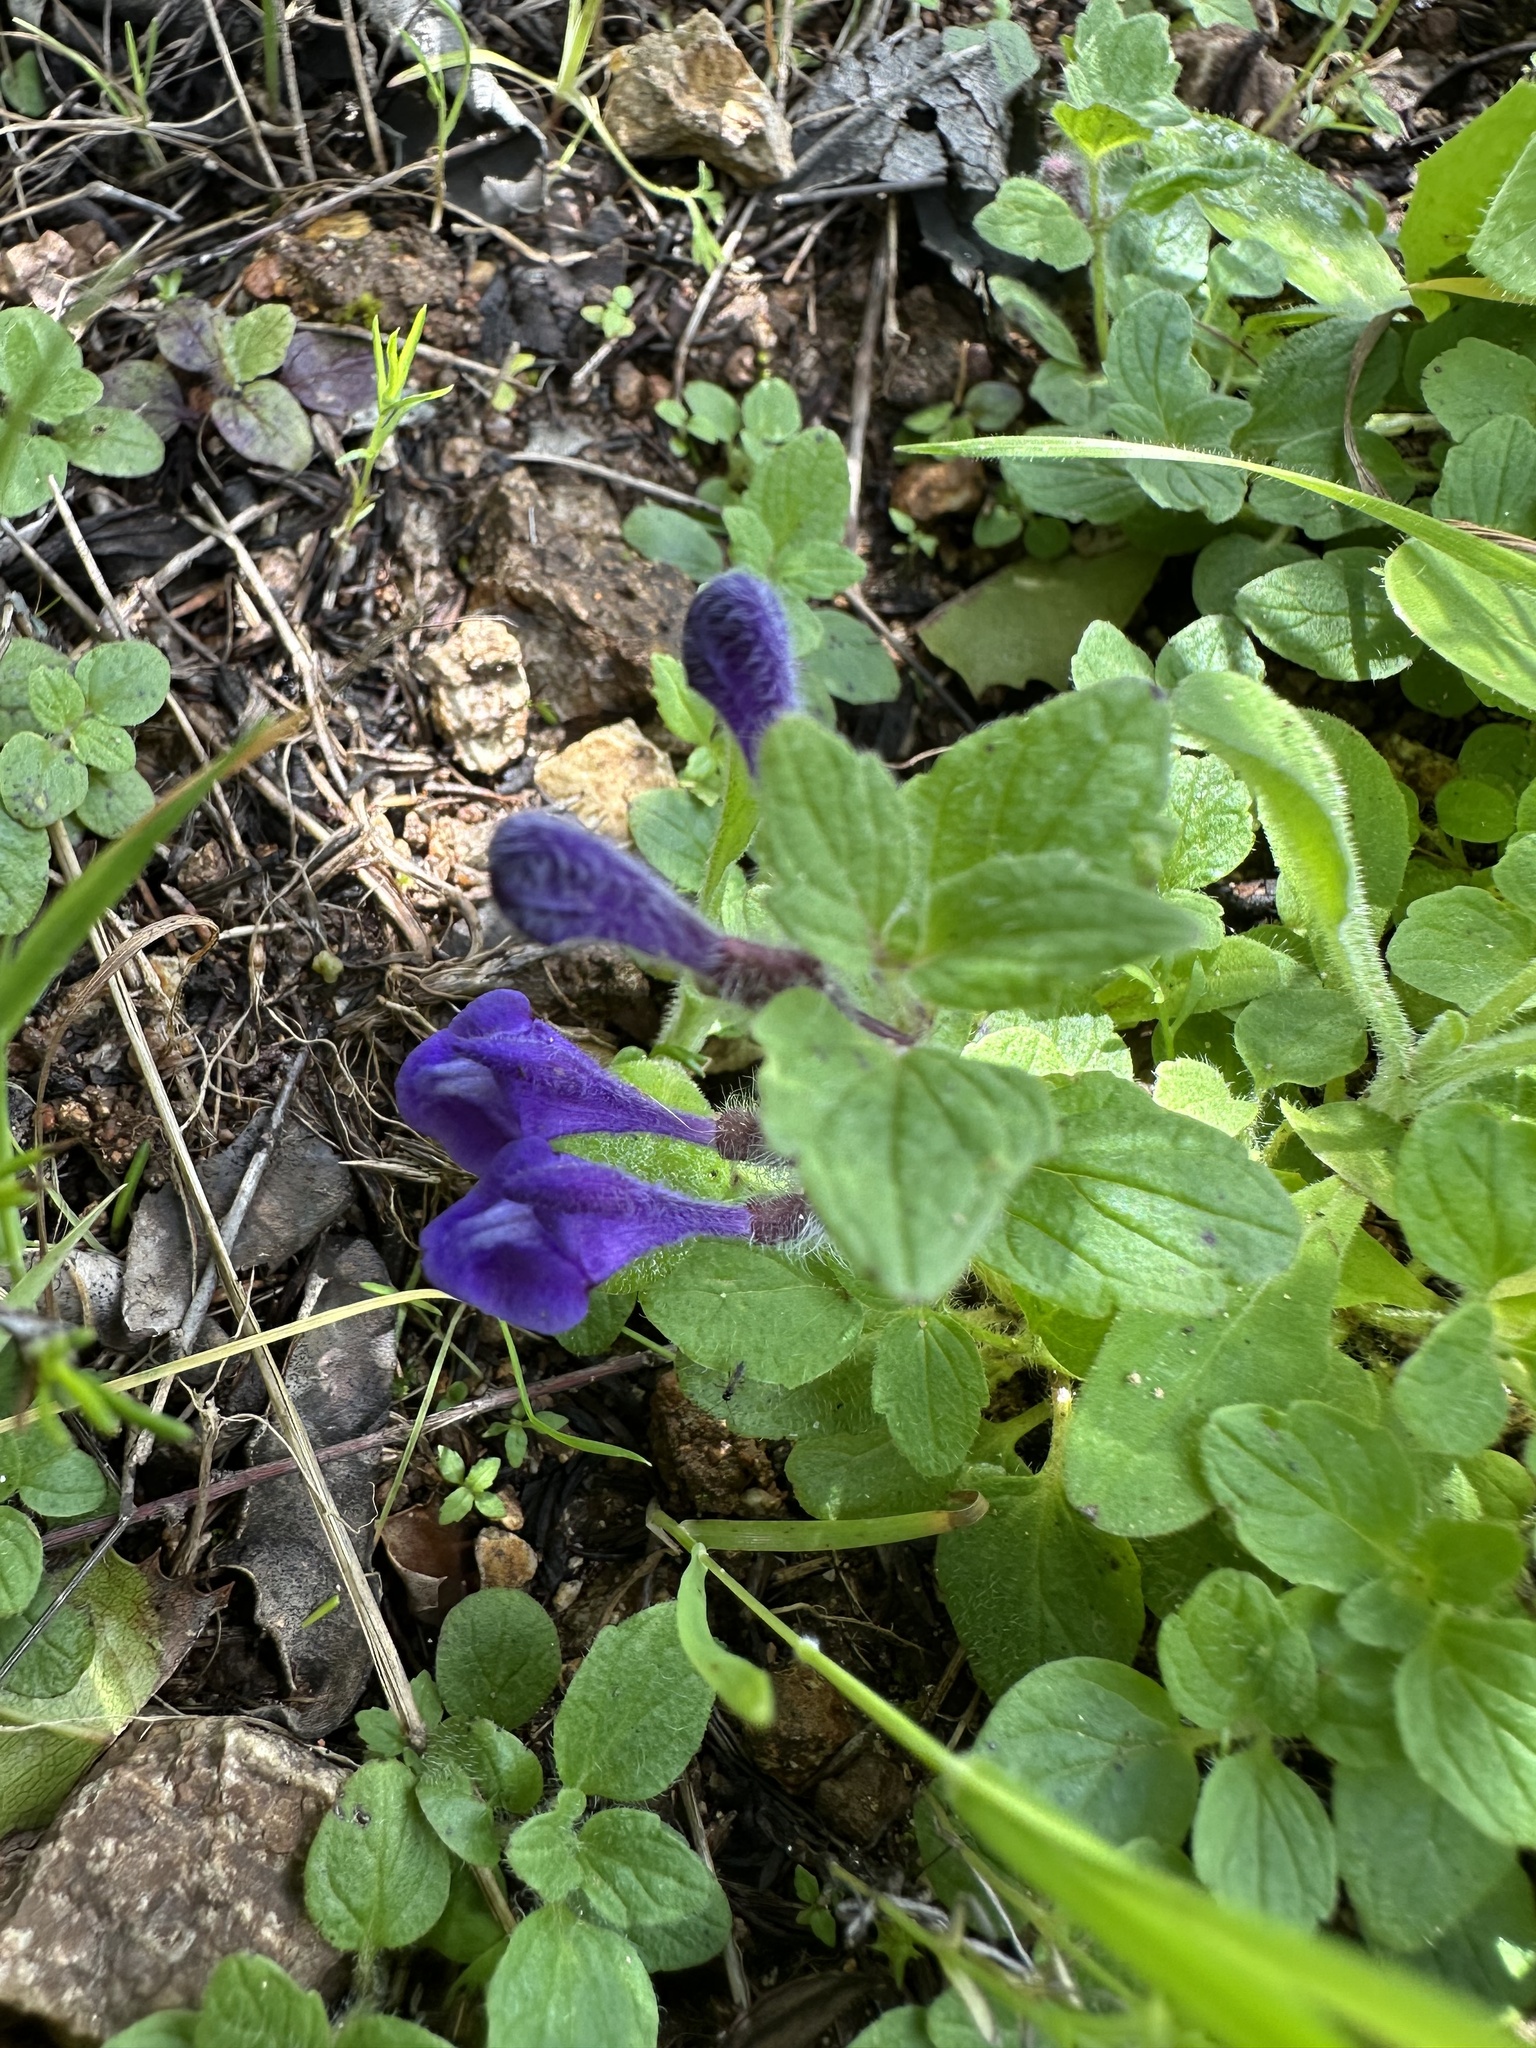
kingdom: Plantae
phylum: Tracheophyta
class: Magnoliopsida
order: Lamiales
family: Lamiaceae
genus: Scutellaria
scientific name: Scutellaria tuberosa
